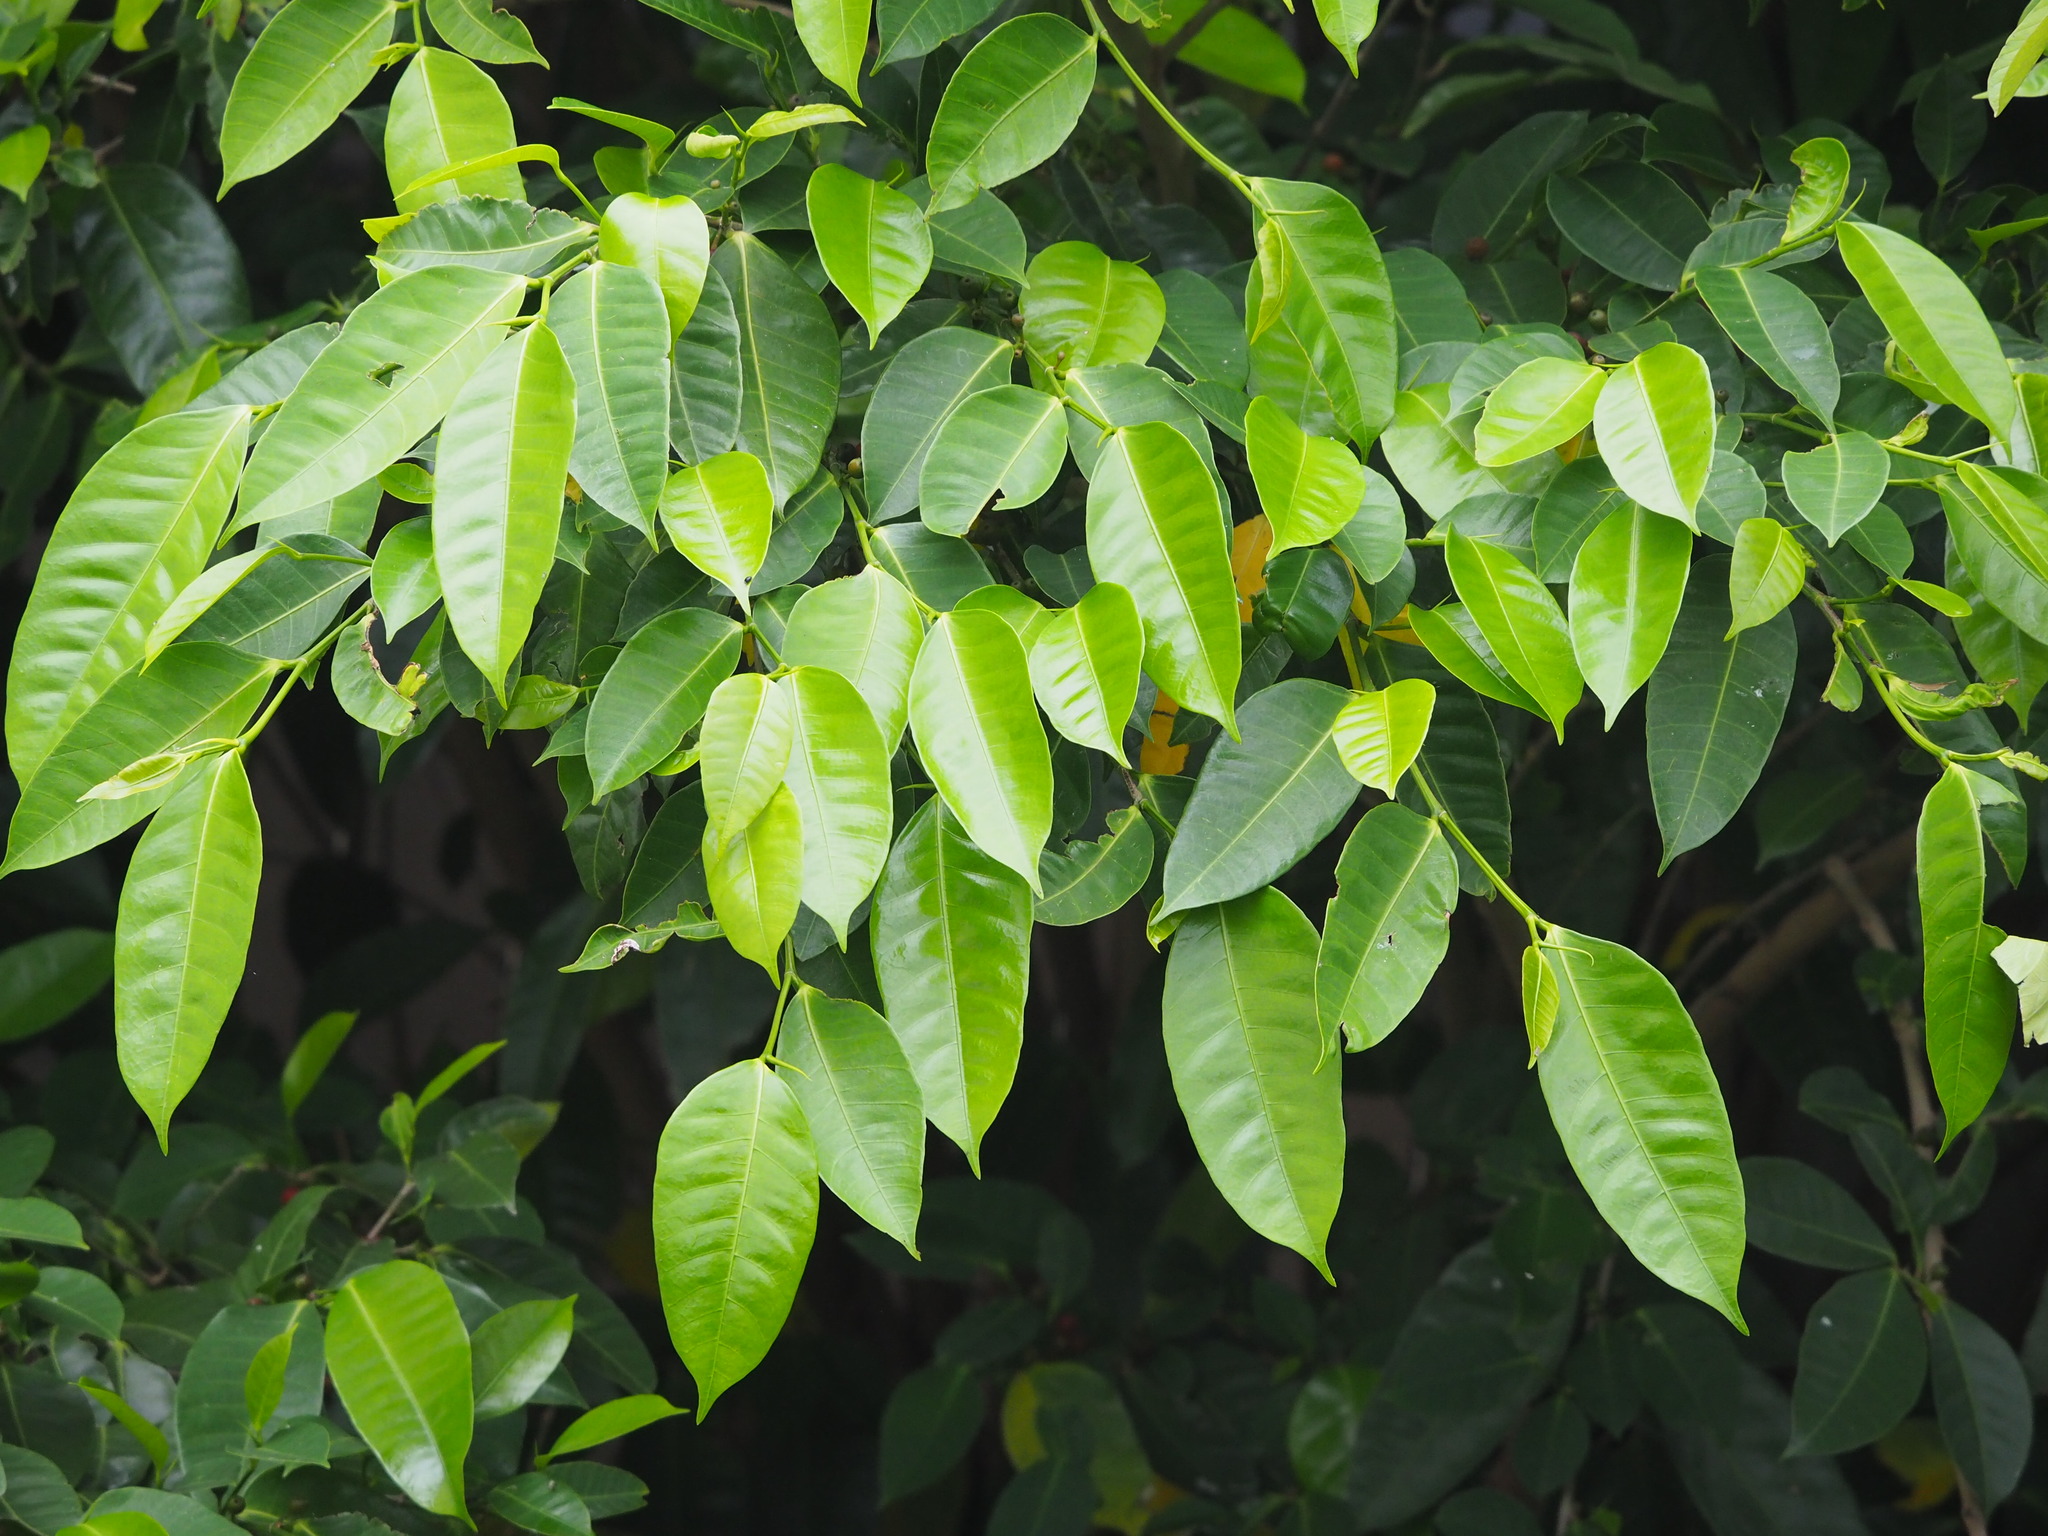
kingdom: Plantae
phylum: Tracheophyta
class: Magnoliopsida
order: Rosales
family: Moraceae
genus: Ficus
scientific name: Ficus virgata
